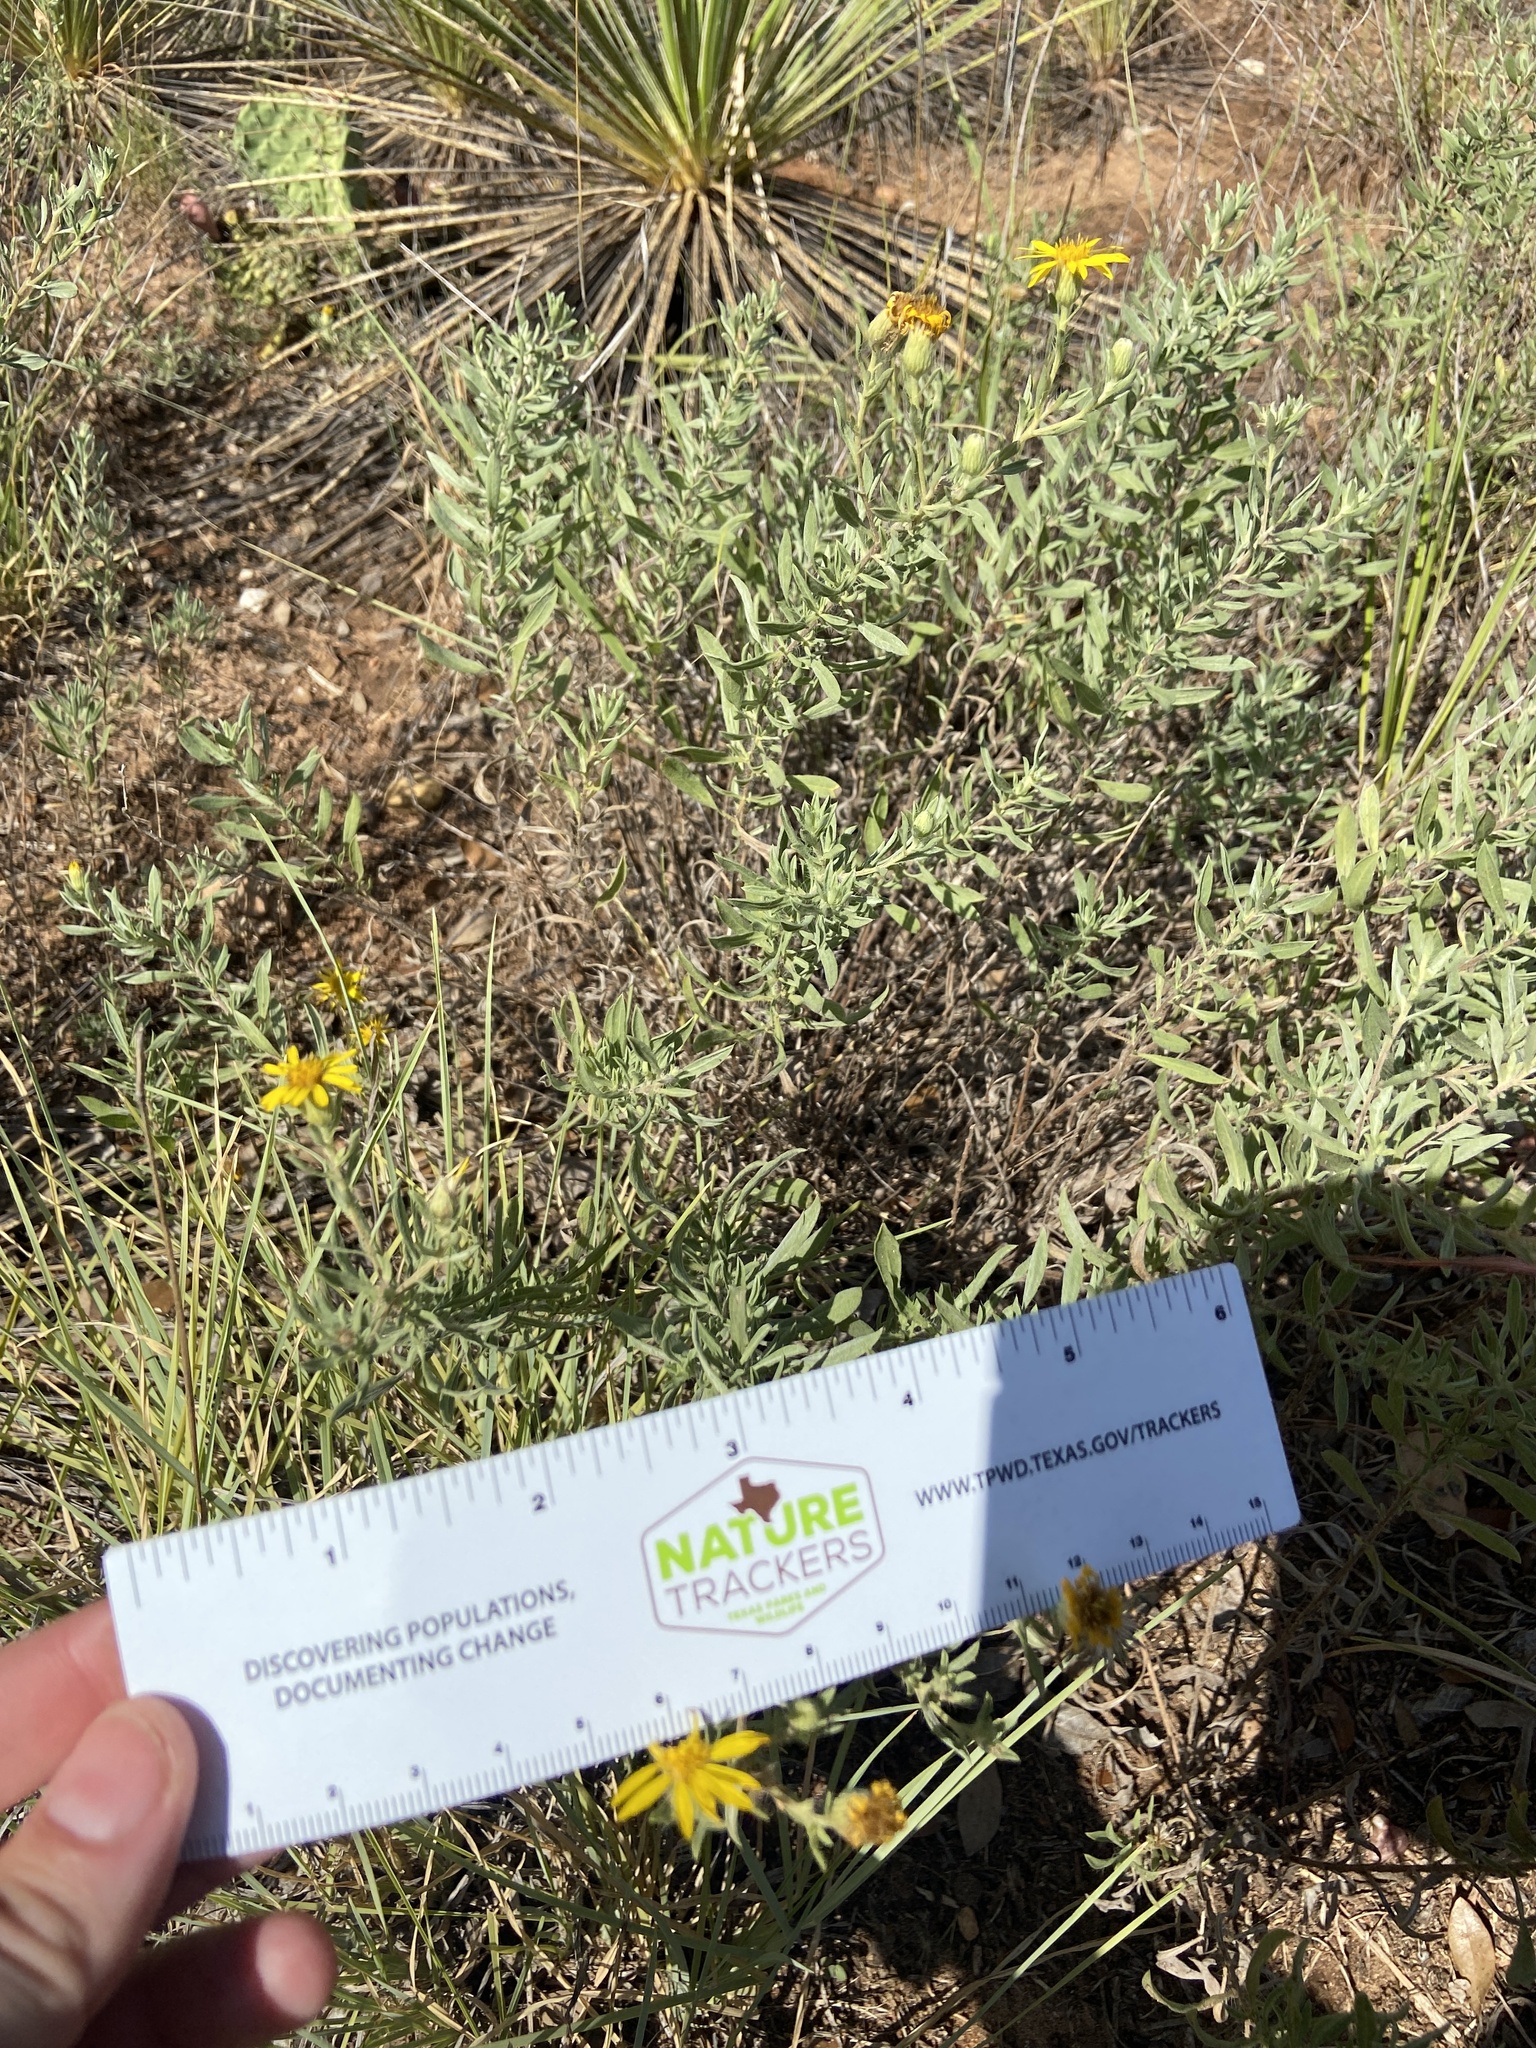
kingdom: Plantae
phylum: Tracheophyta
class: Magnoliopsida
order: Asterales
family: Asteraceae
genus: Heterotheca
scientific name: Heterotheca canescens
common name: Hoary golden-aster
